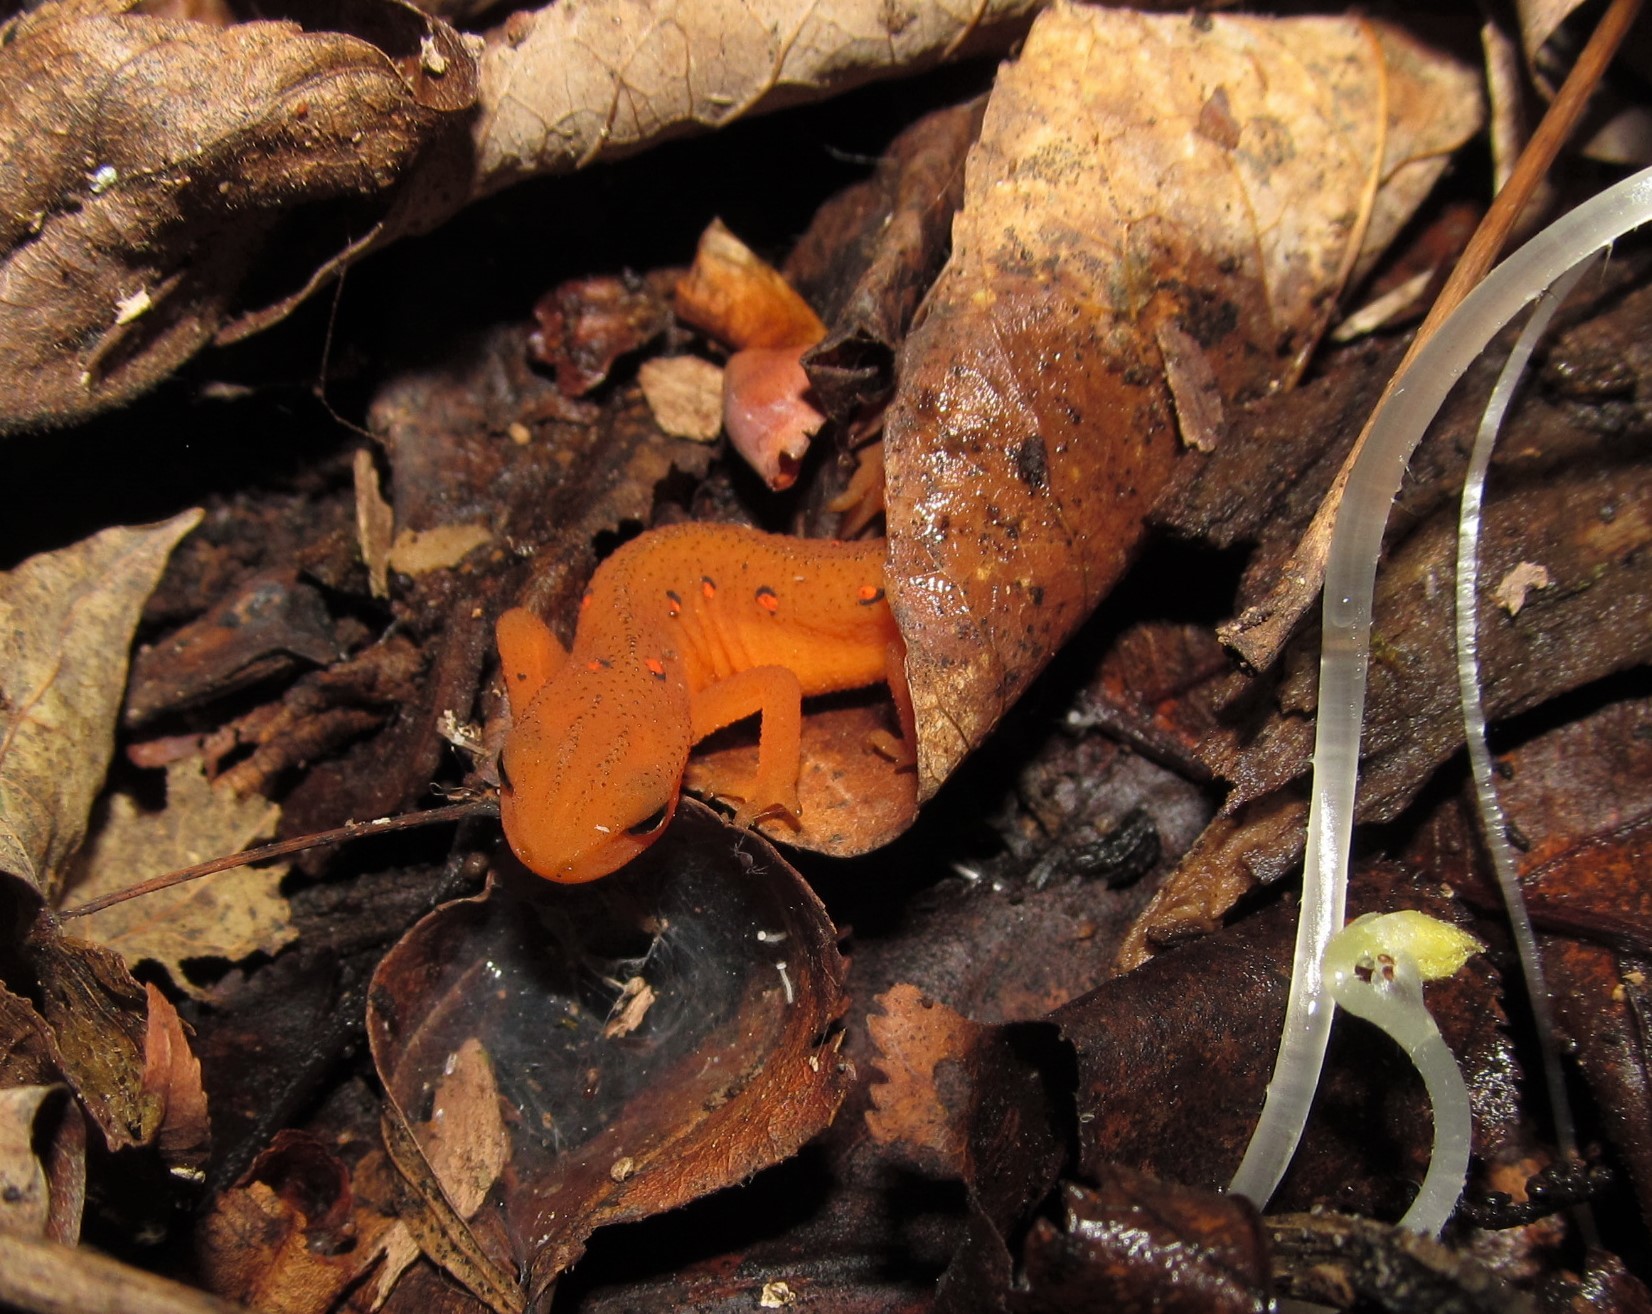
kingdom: Animalia
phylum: Chordata
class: Amphibia
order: Caudata
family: Salamandridae
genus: Notophthalmus
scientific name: Notophthalmus viridescens
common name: Eastern newt
